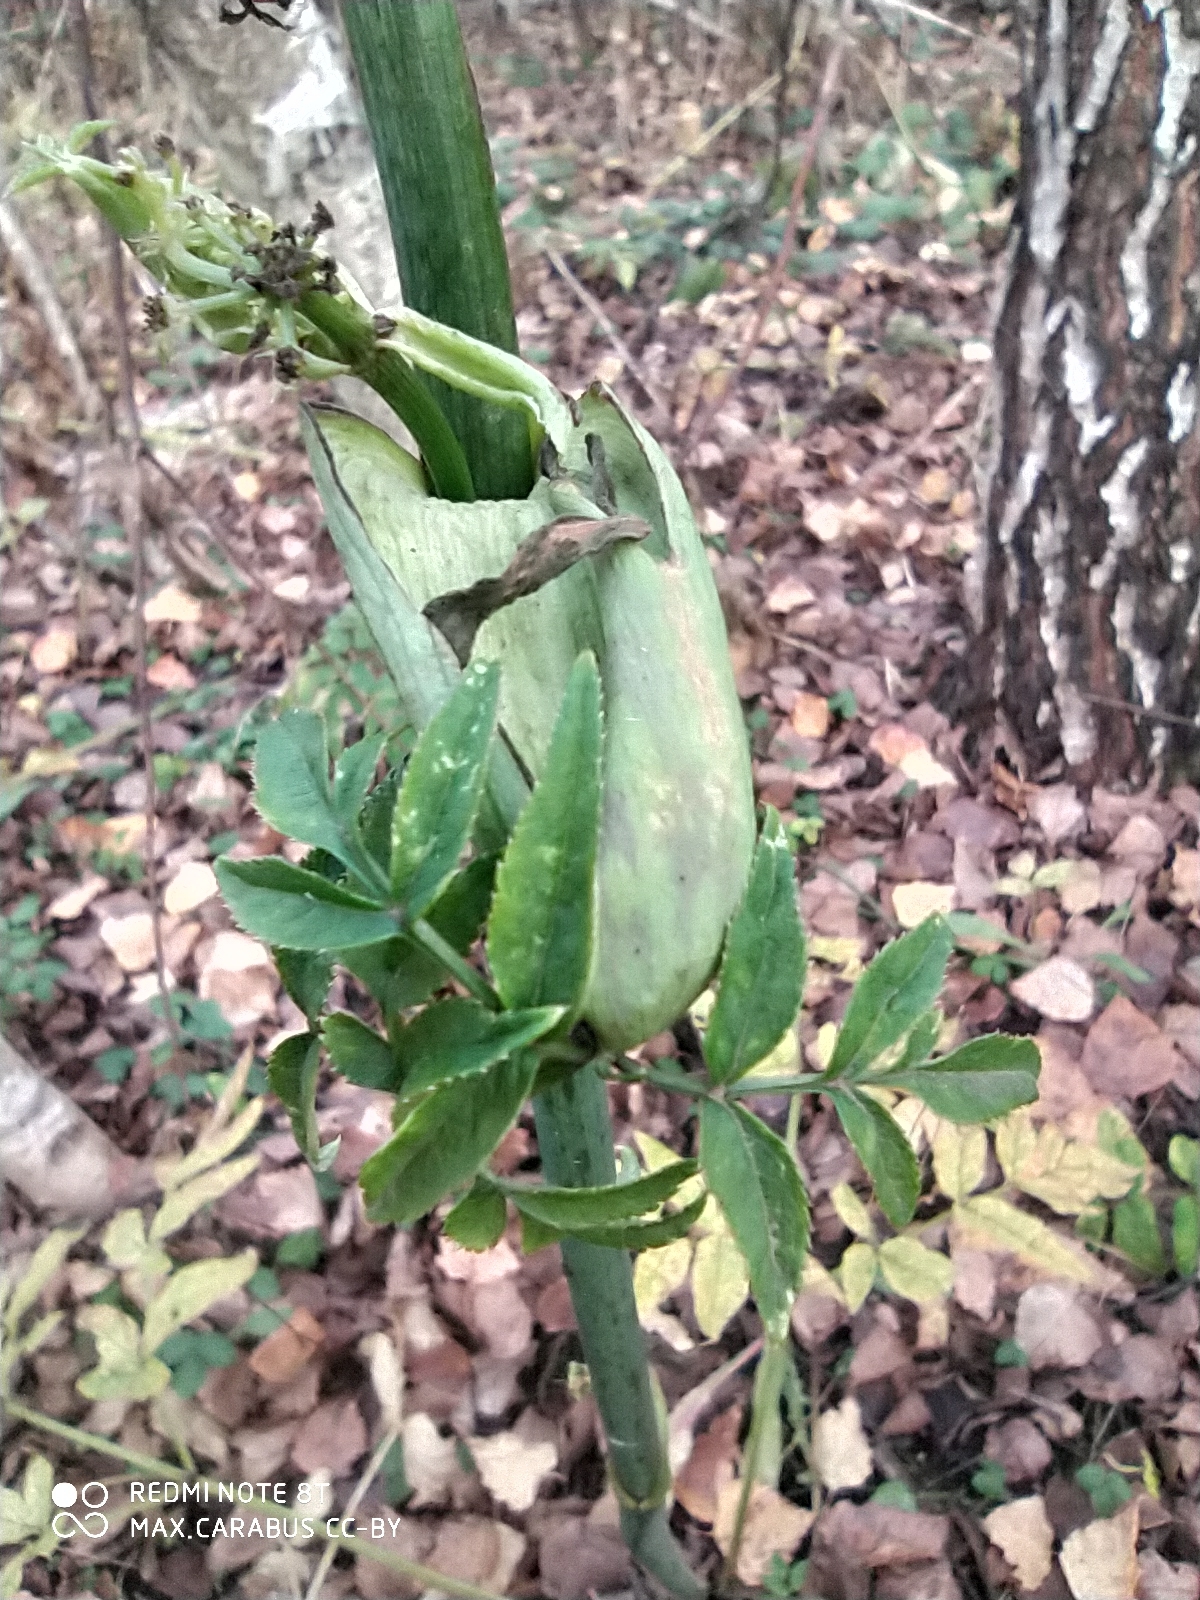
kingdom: Plantae
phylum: Tracheophyta
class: Magnoliopsida
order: Apiales
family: Apiaceae
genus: Angelica
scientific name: Angelica sylvestris
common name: Wild angelica
